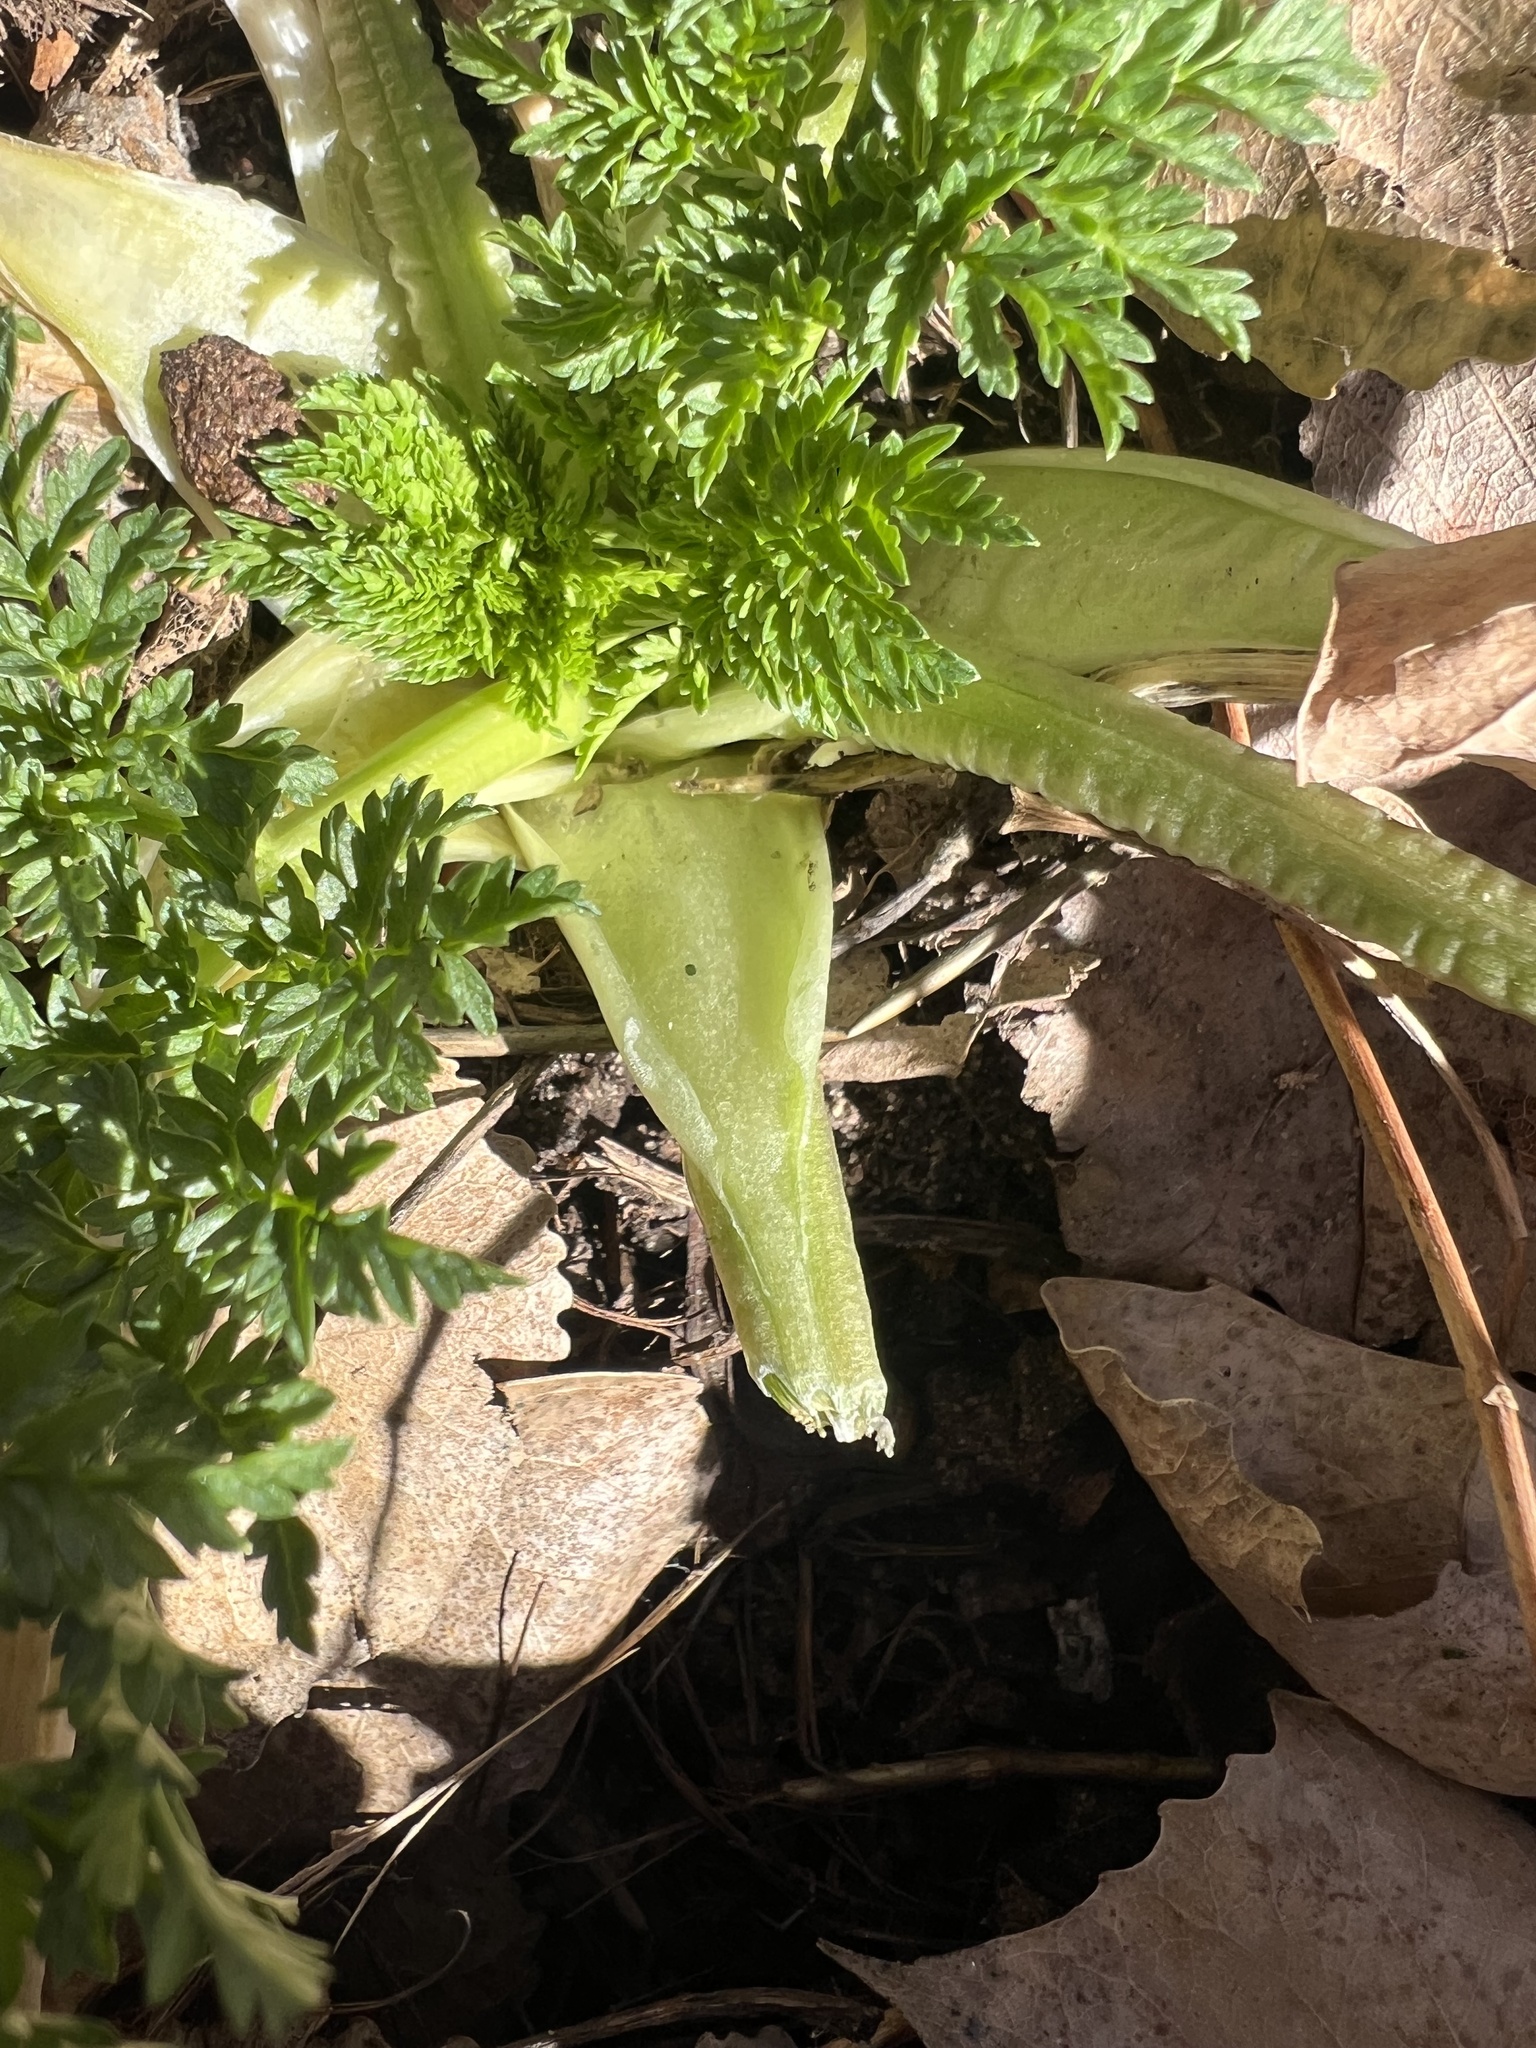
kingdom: Plantae
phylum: Tracheophyta
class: Magnoliopsida
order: Apiales
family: Apiaceae
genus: Conium
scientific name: Conium maculatum
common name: Hemlock
